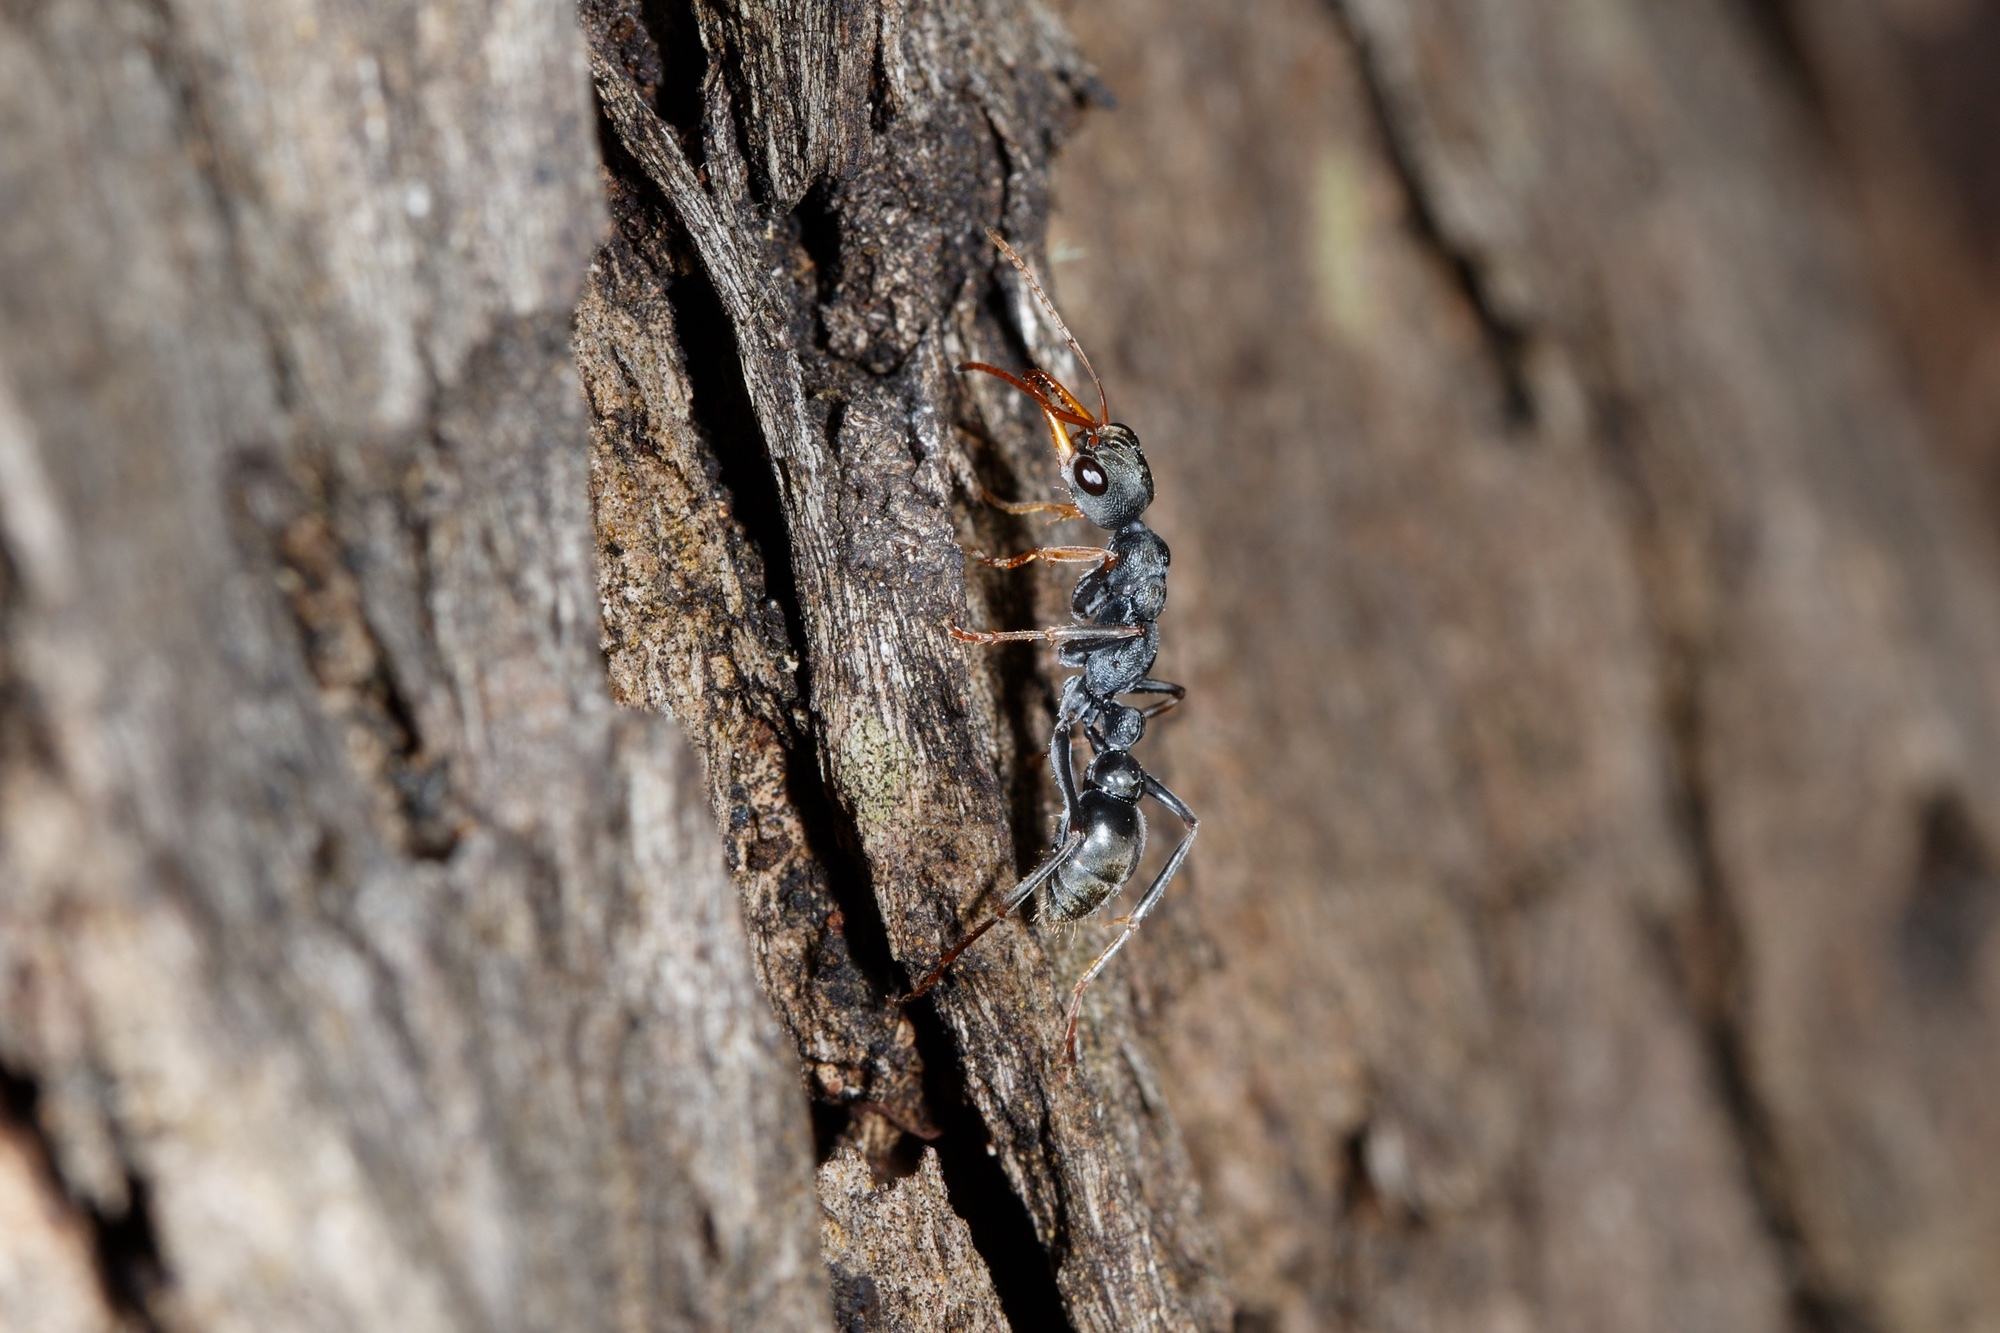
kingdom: Animalia
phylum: Arthropoda
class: Insecta
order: Hymenoptera
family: Formicidae
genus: Myrmecia
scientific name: Myrmecia pilosula
